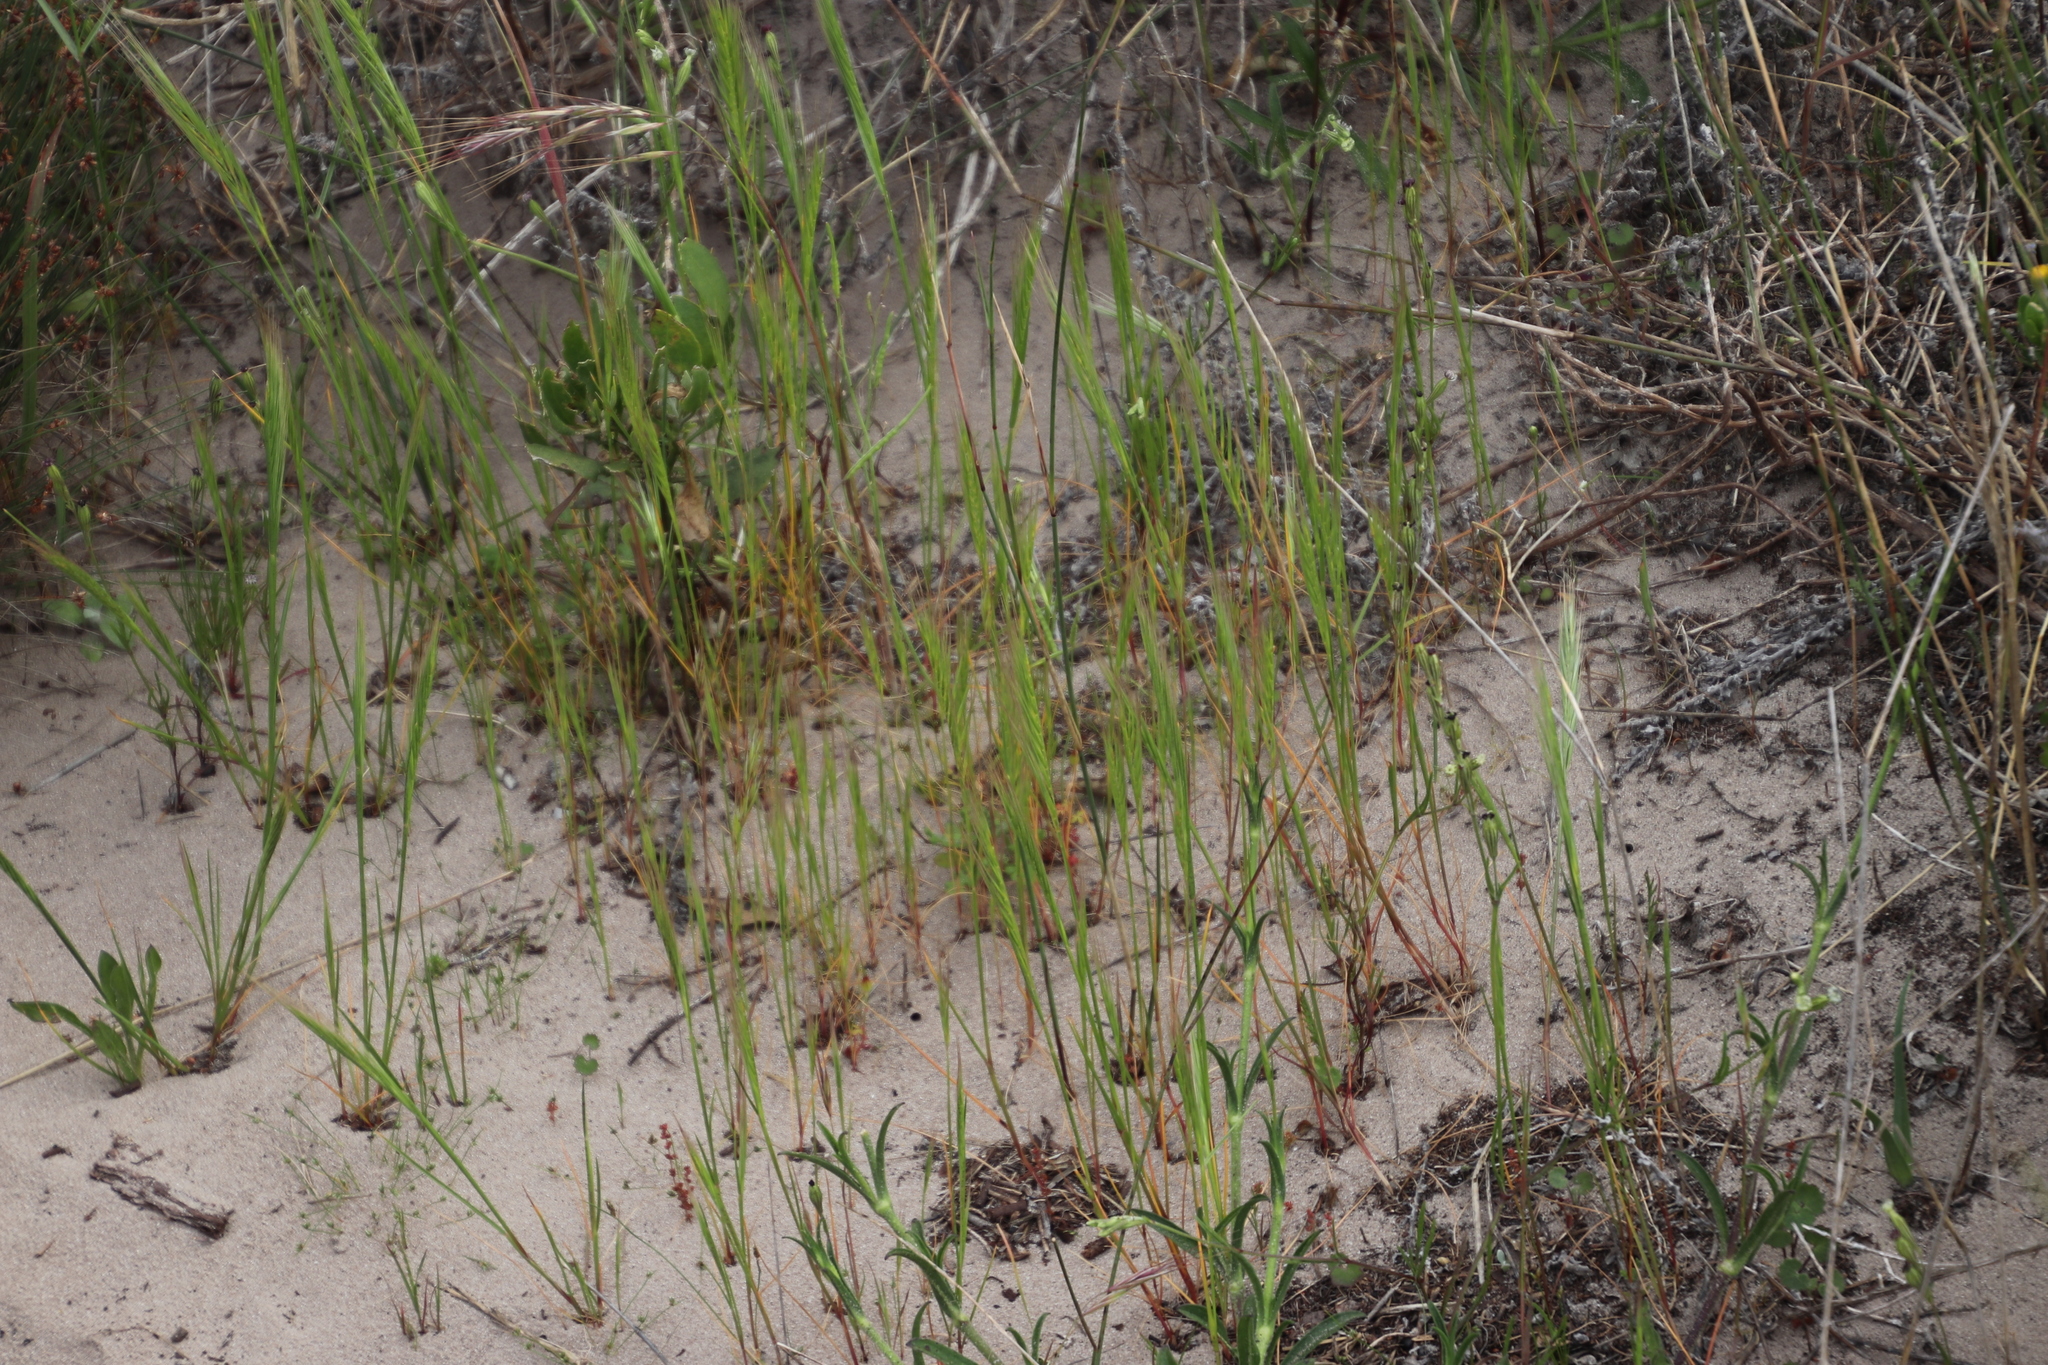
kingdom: Plantae
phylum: Tracheophyta
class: Liliopsida
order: Poales
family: Poaceae
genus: Bromus
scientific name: Bromus diandrus
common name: Ripgut brome
